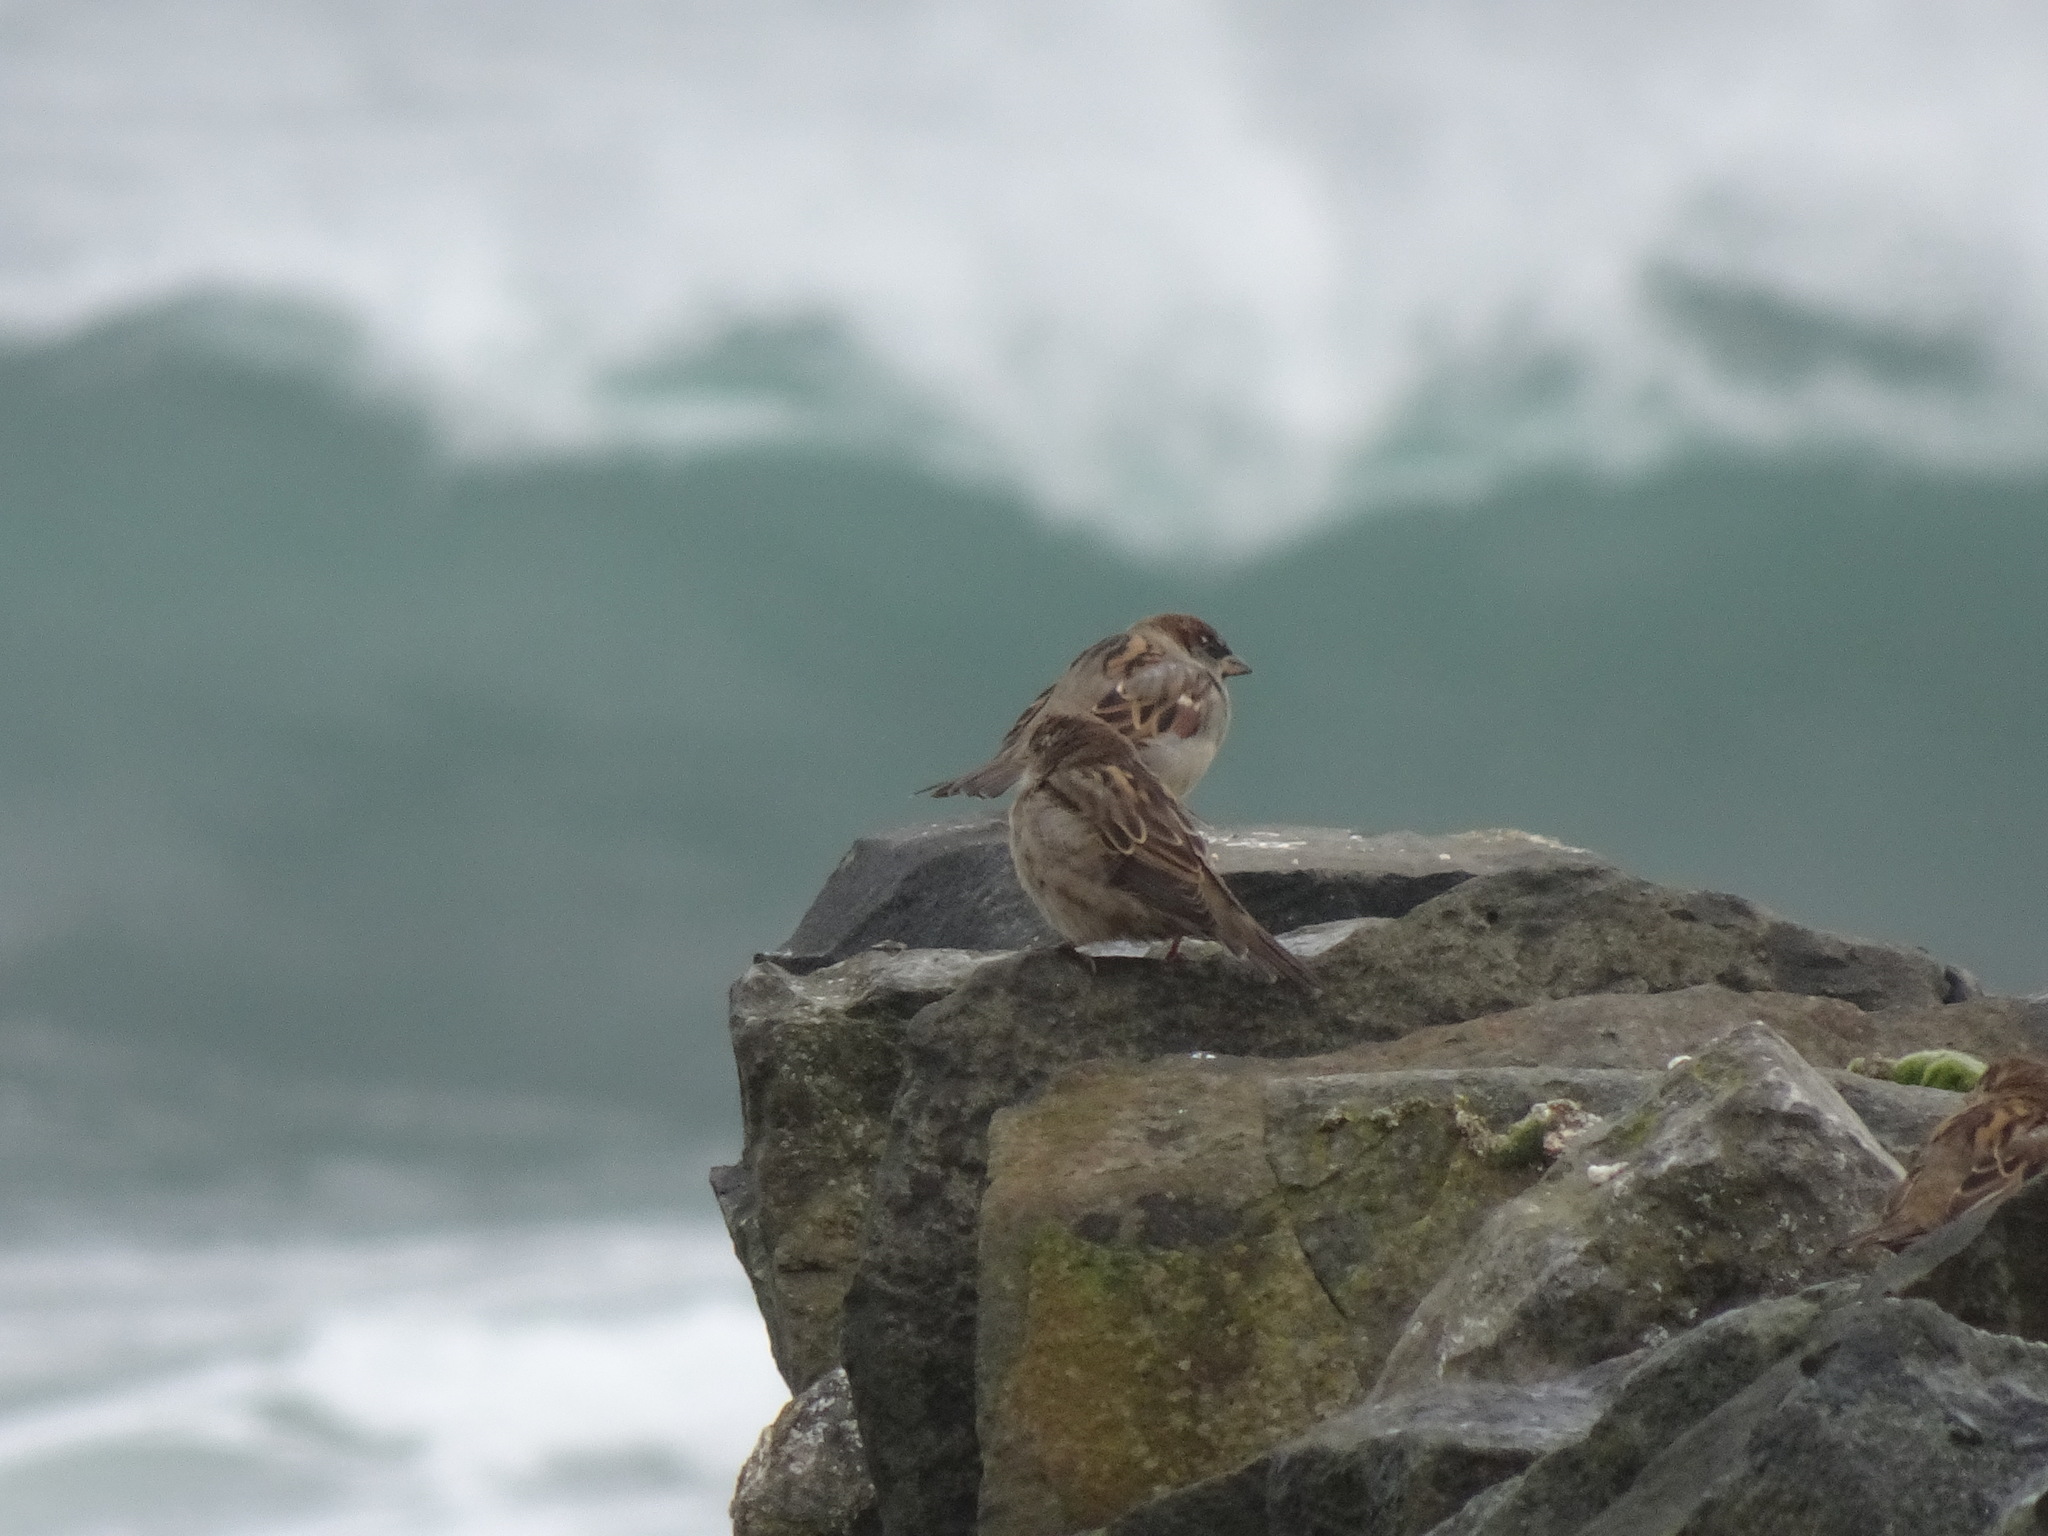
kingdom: Animalia
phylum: Chordata
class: Aves
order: Passeriformes
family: Passeridae
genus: Passer
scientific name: Passer domesticus
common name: House sparrow
